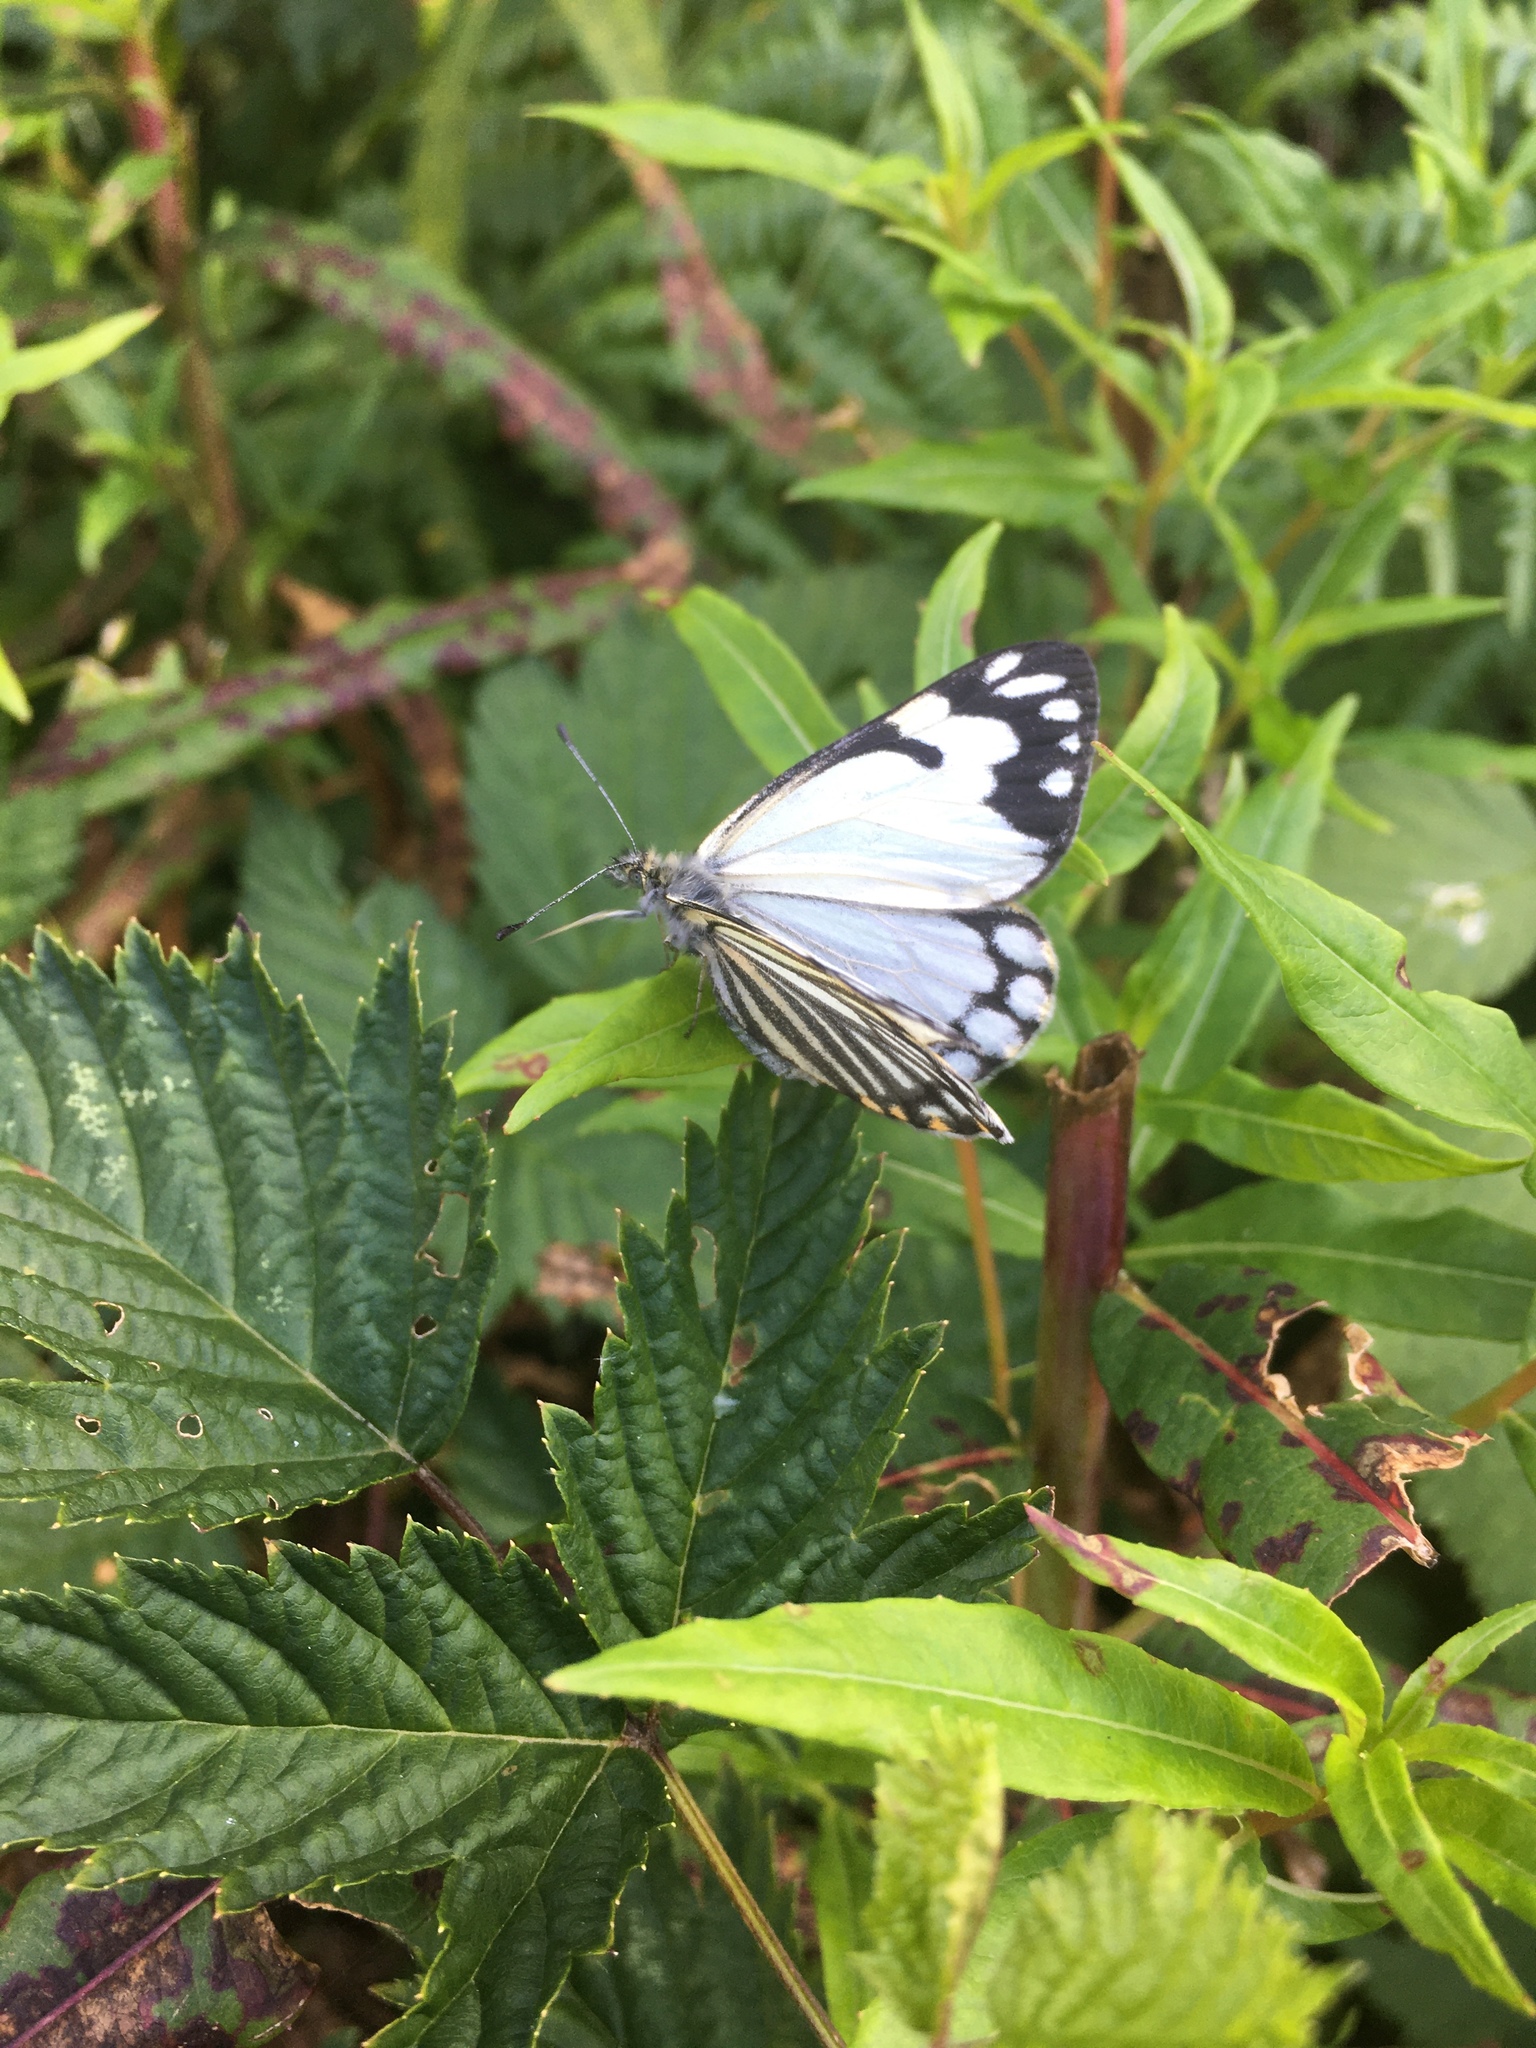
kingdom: Animalia
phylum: Arthropoda
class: Insecta
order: Lepidoptera
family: Pieridae
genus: Neophasia
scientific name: Neophasia menapia
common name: Pine white
